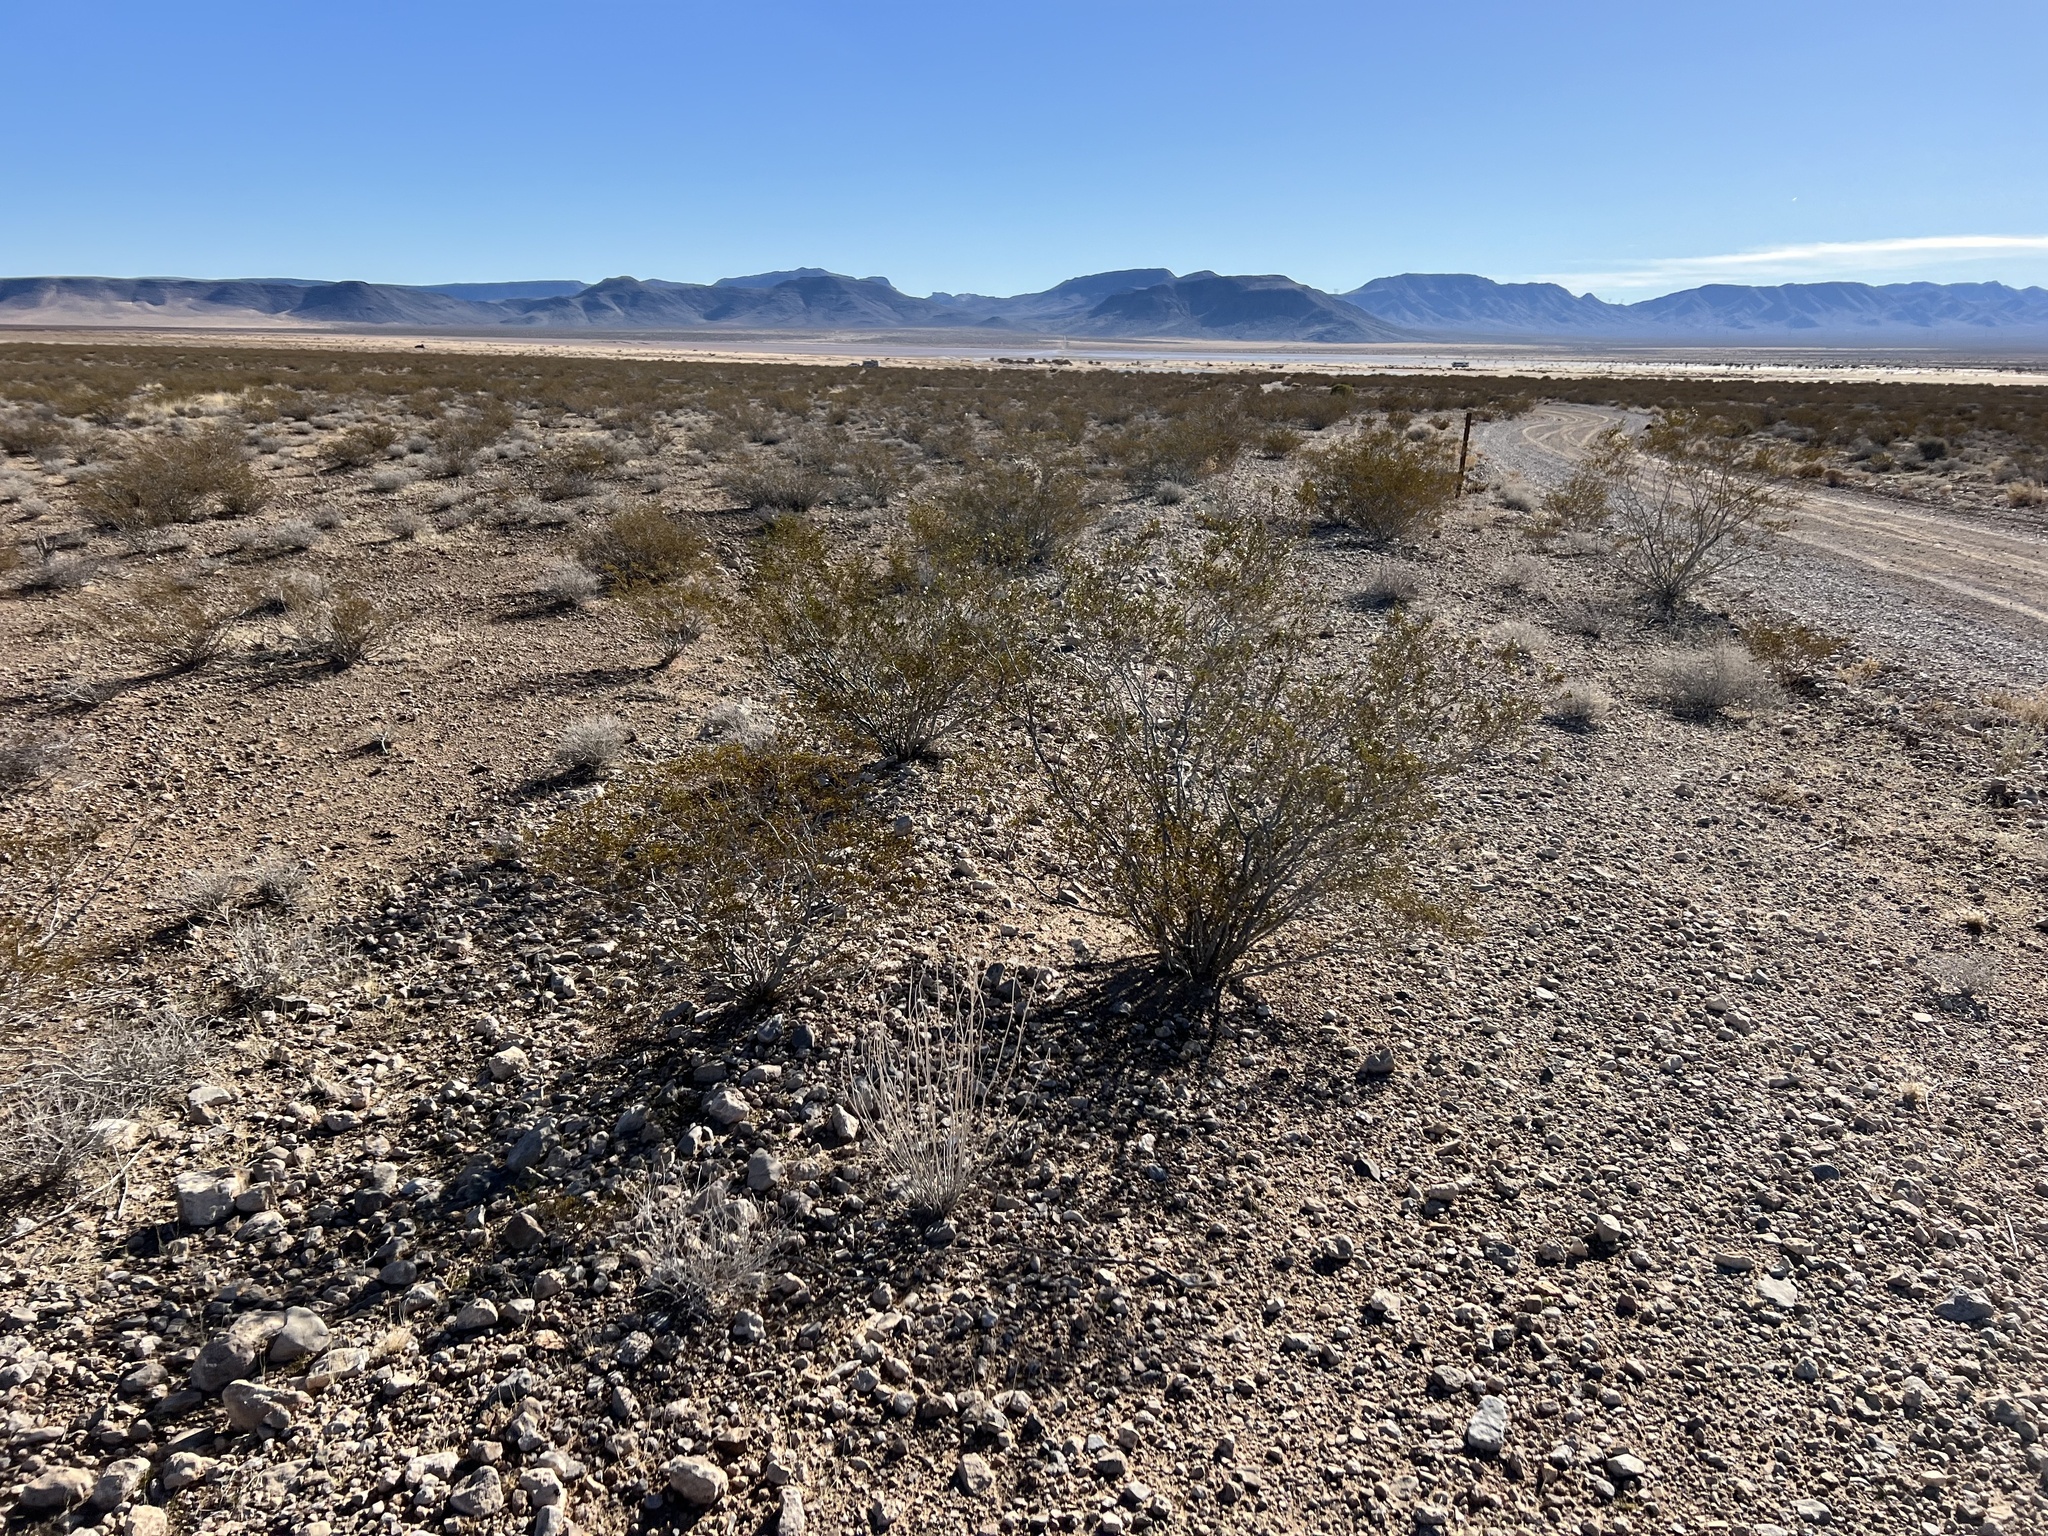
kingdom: Plantae
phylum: Tracheophyta
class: Magnoliopsida
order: Zygophyllales
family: Zygophyllaceae
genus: Larrea
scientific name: Larrea tridentata
